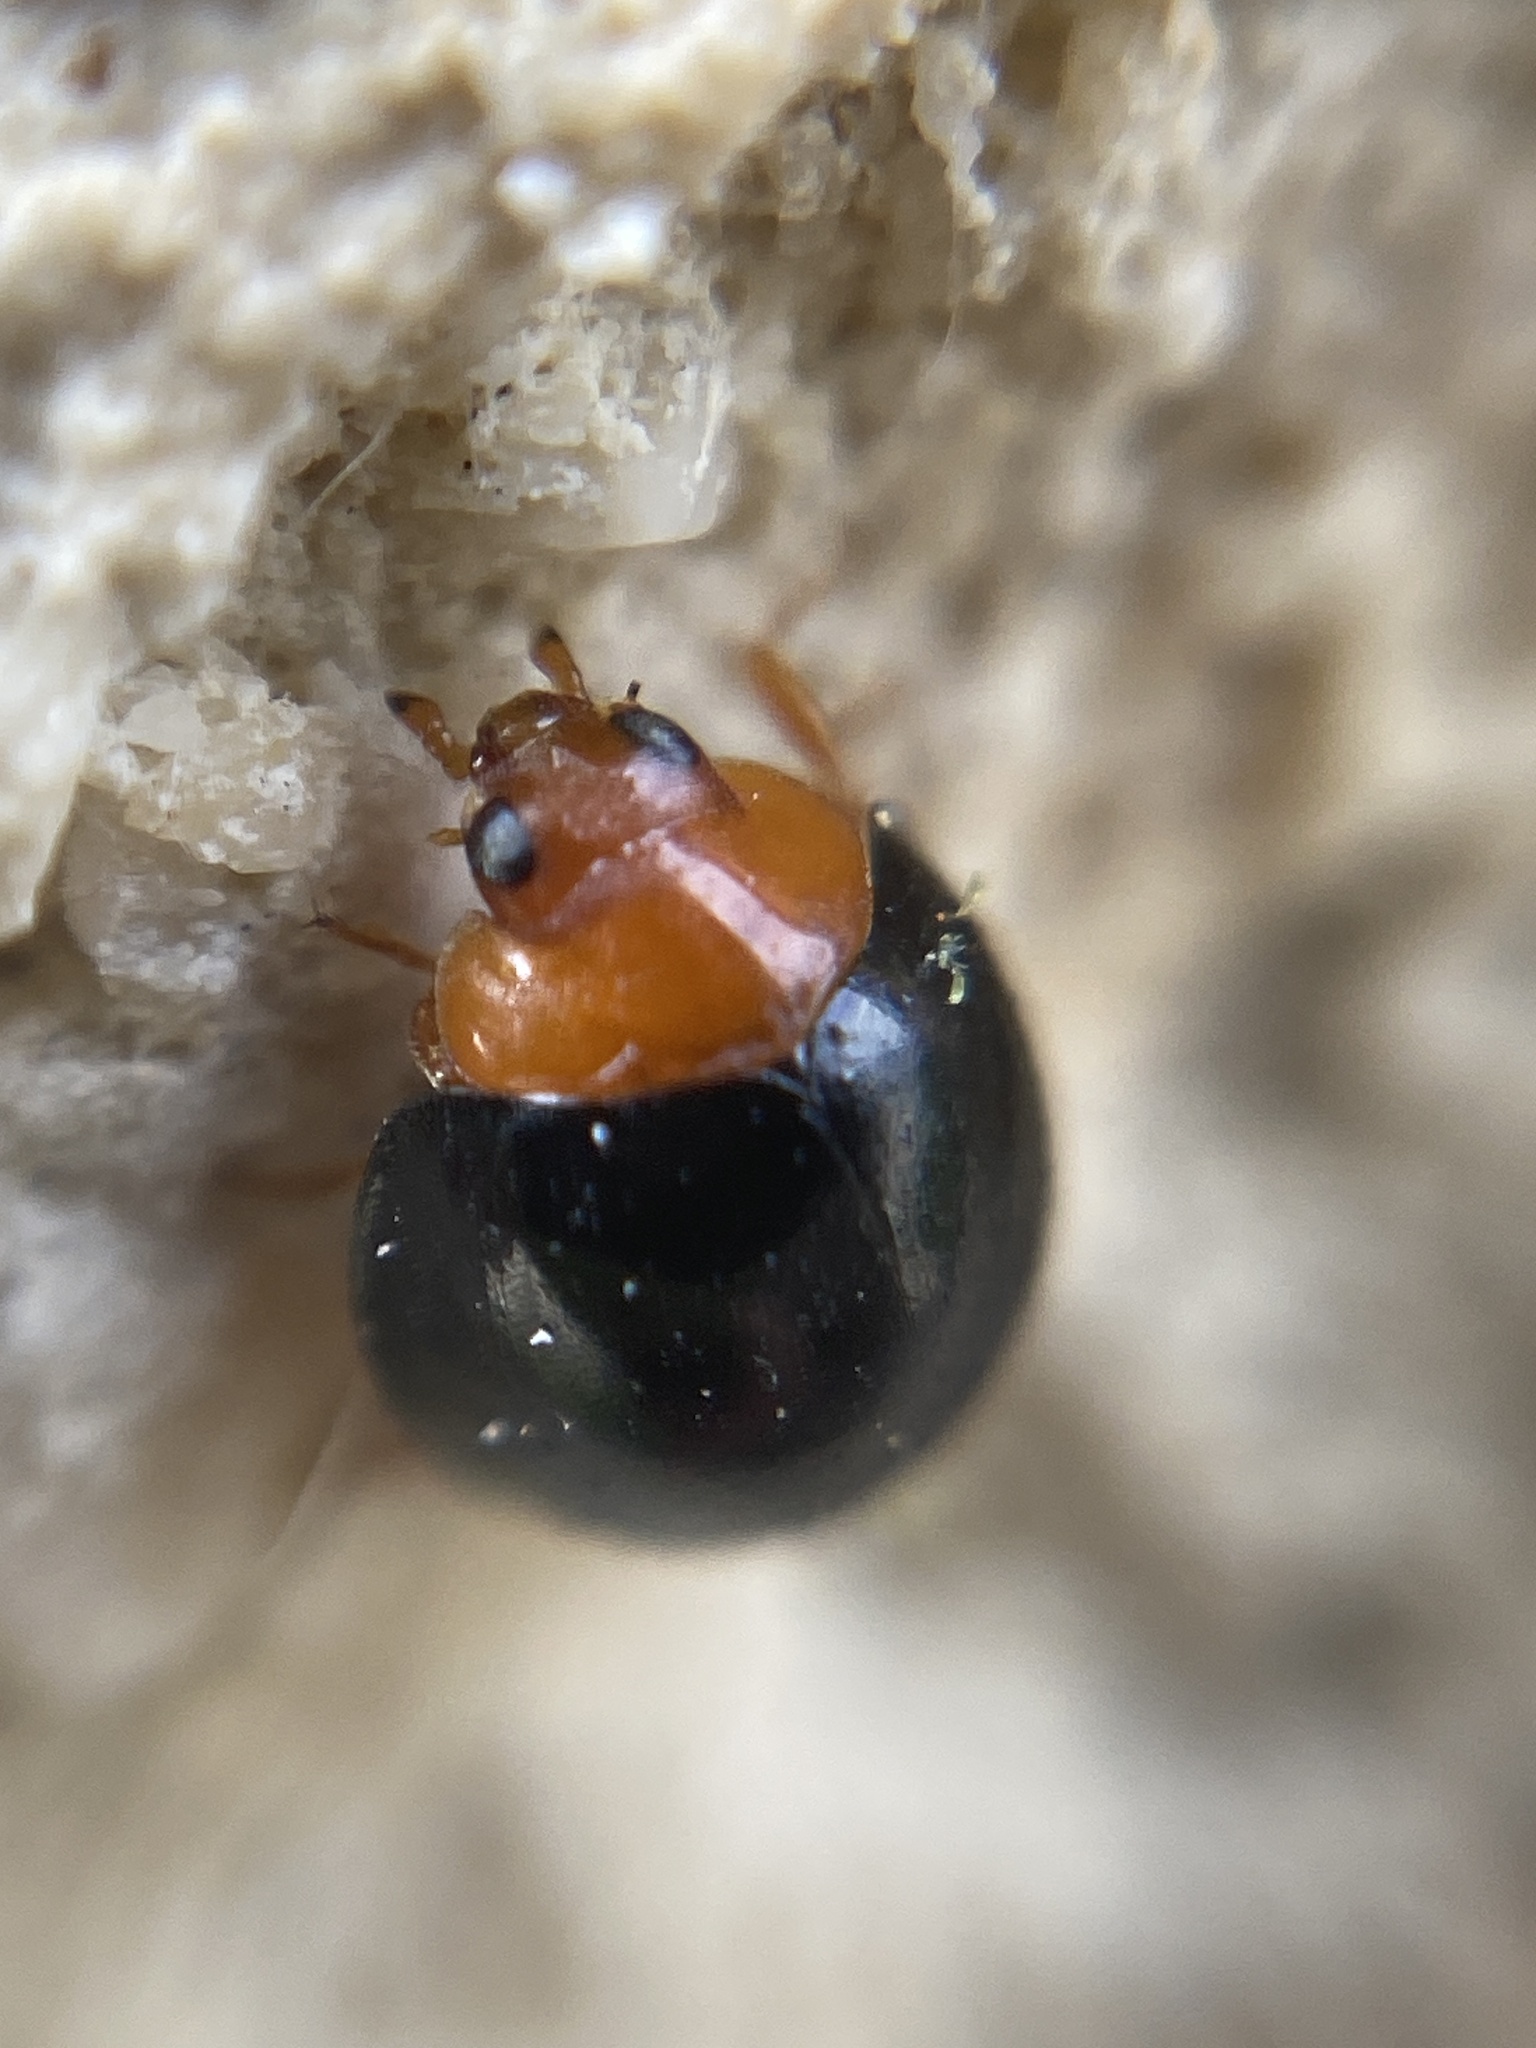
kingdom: Animalia
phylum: Arthropoda
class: Insecta
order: Coleoptera
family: Coccinellidae
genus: Exochomus
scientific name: Exochomus nigripennis
